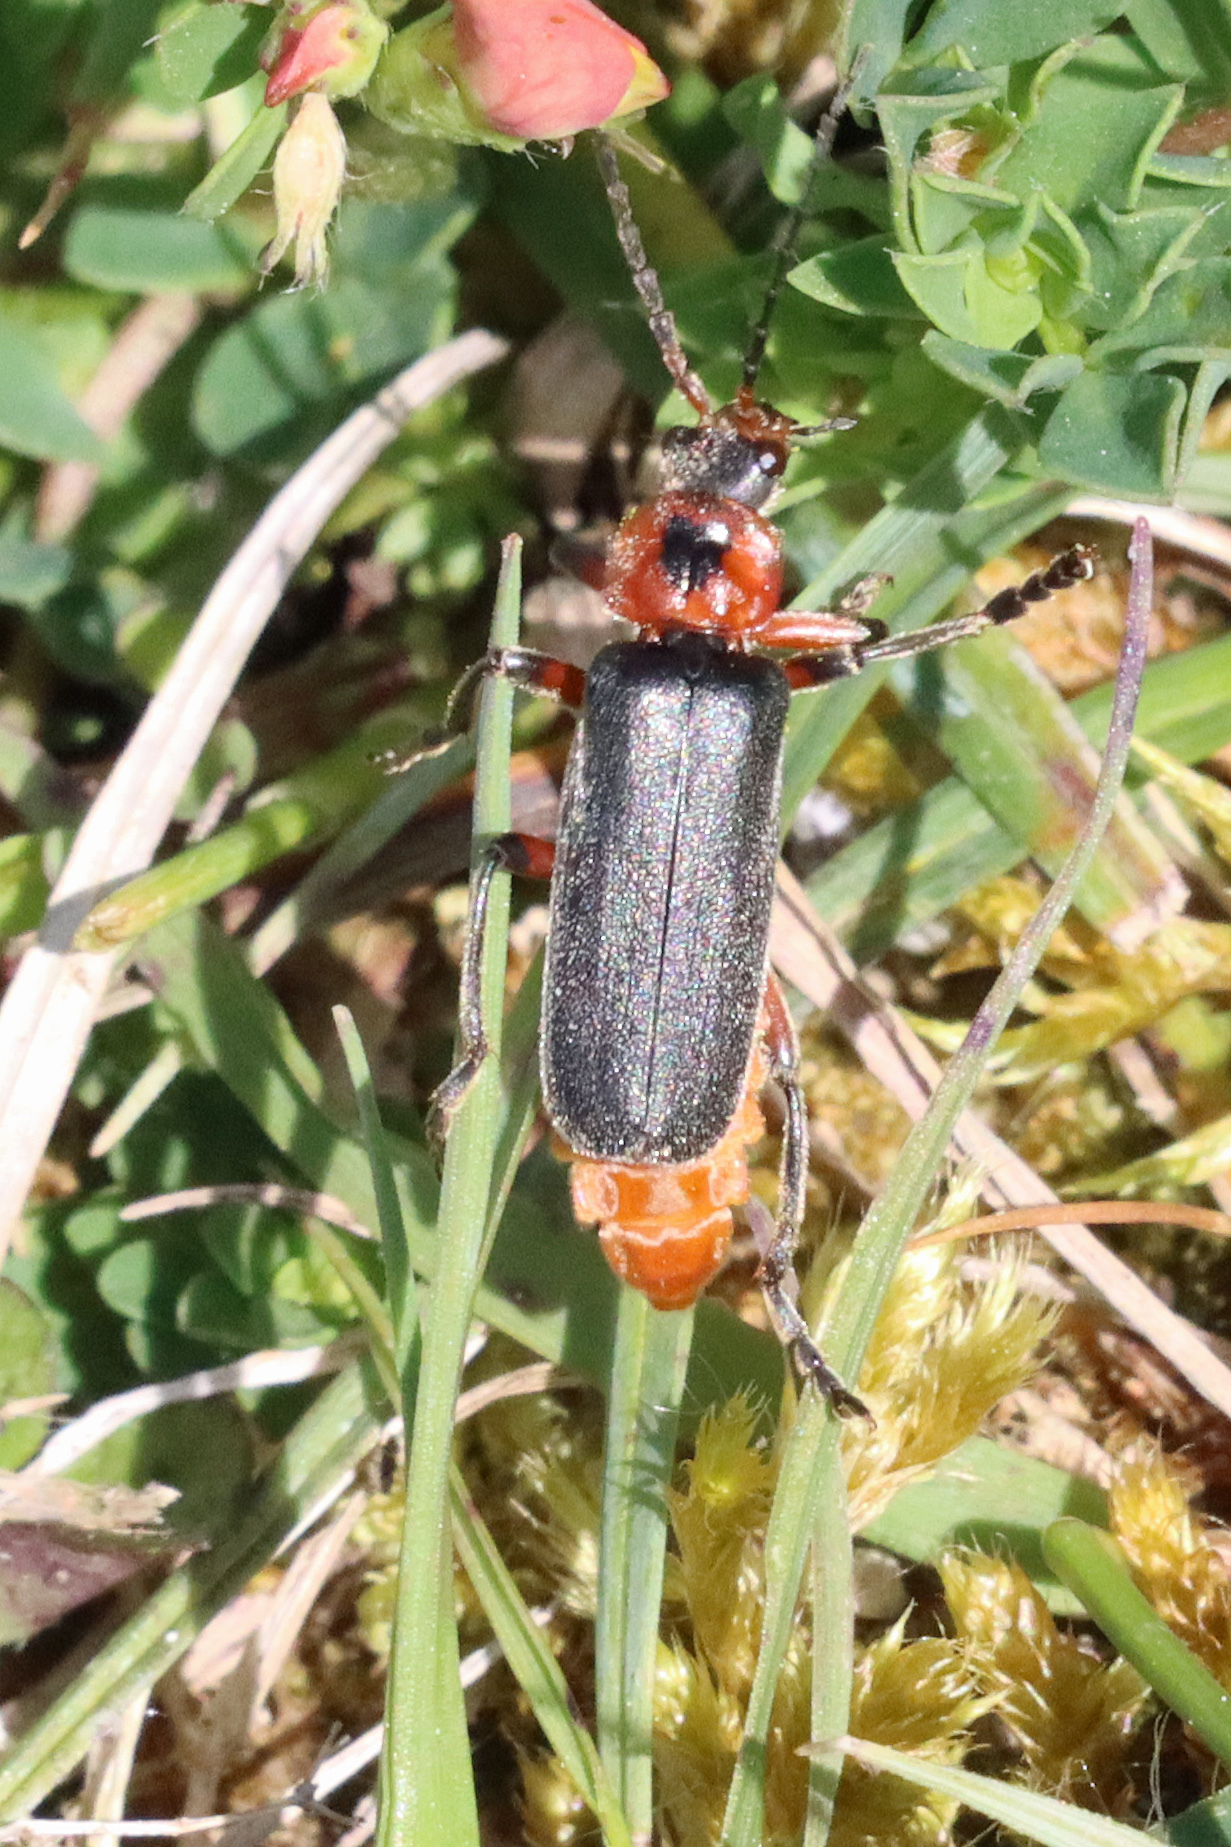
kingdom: Animalia
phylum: Arthropoda
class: Insecta
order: Coleoptera
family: Cantharidae
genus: Cantharis
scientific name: Cantharis rustica
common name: Soldier beetle
